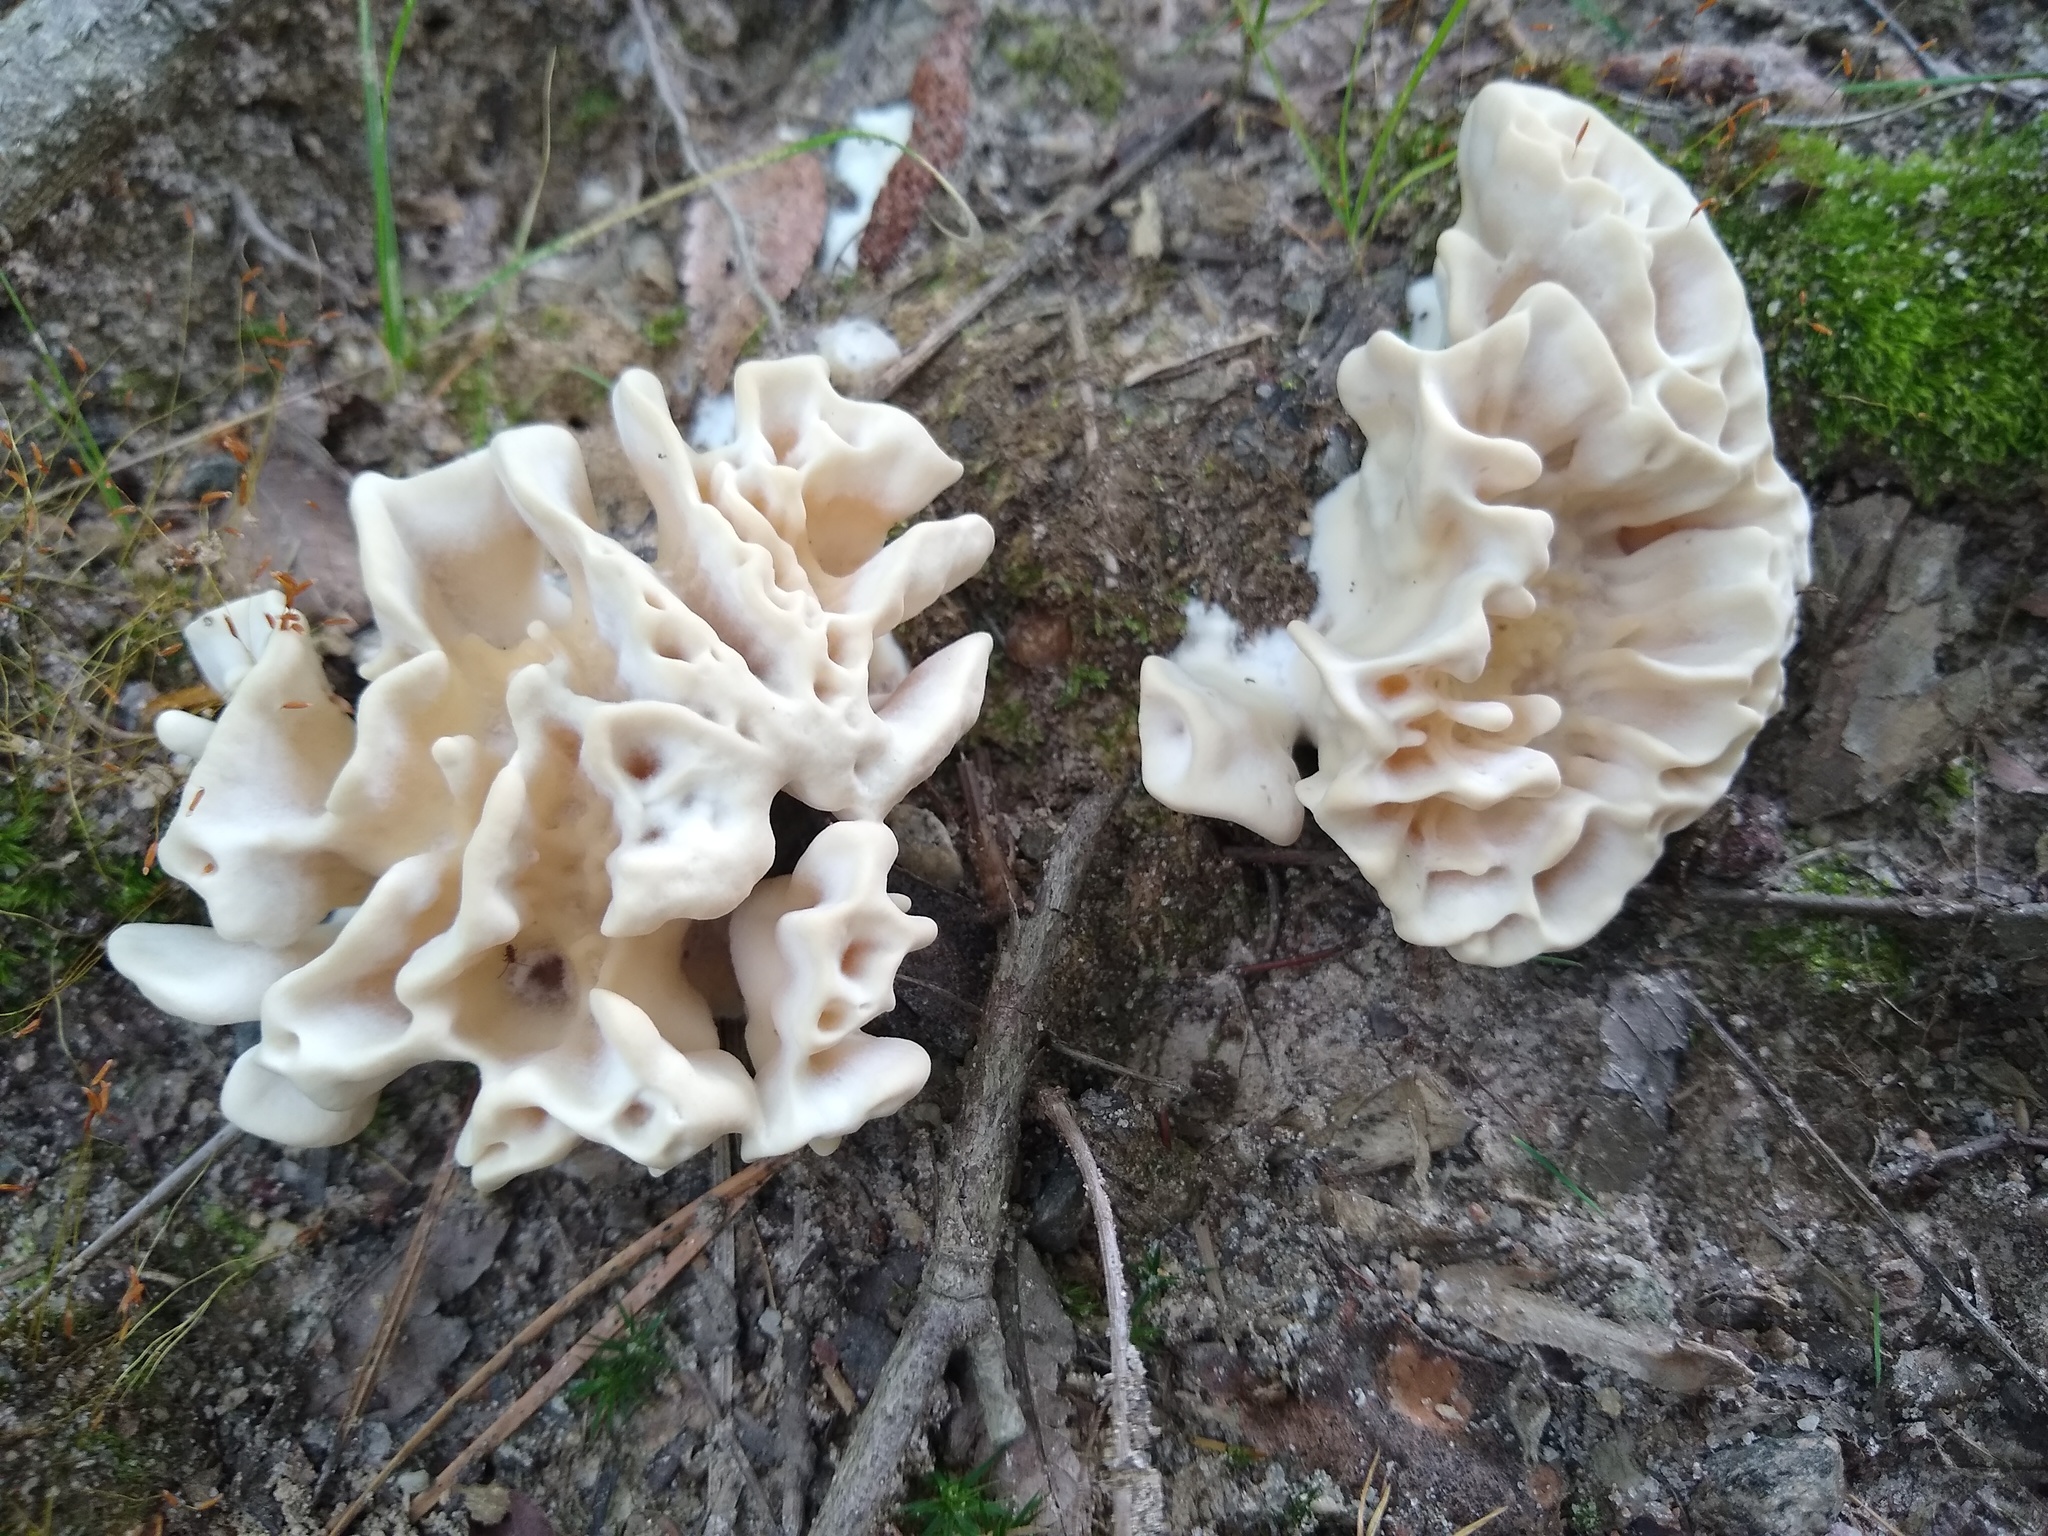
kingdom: Fungi
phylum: Basidiomycota
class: Agaricomycetes
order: Polyporales
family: Sparassidaceae
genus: Sparassis
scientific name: Sparassis spathulata
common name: Eastern cauliflower mushroom
